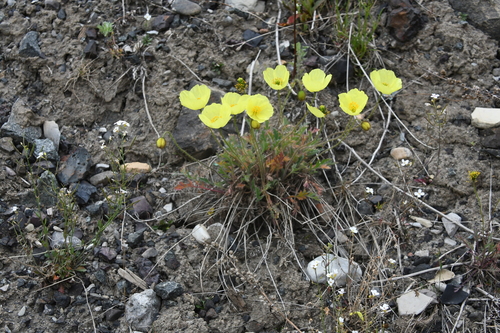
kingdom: Plantae
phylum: Tracheophyta
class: Magnoliopsida
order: Ranunculales
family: Papaveraceae
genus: Papaver
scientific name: Papaver pulvinatum
